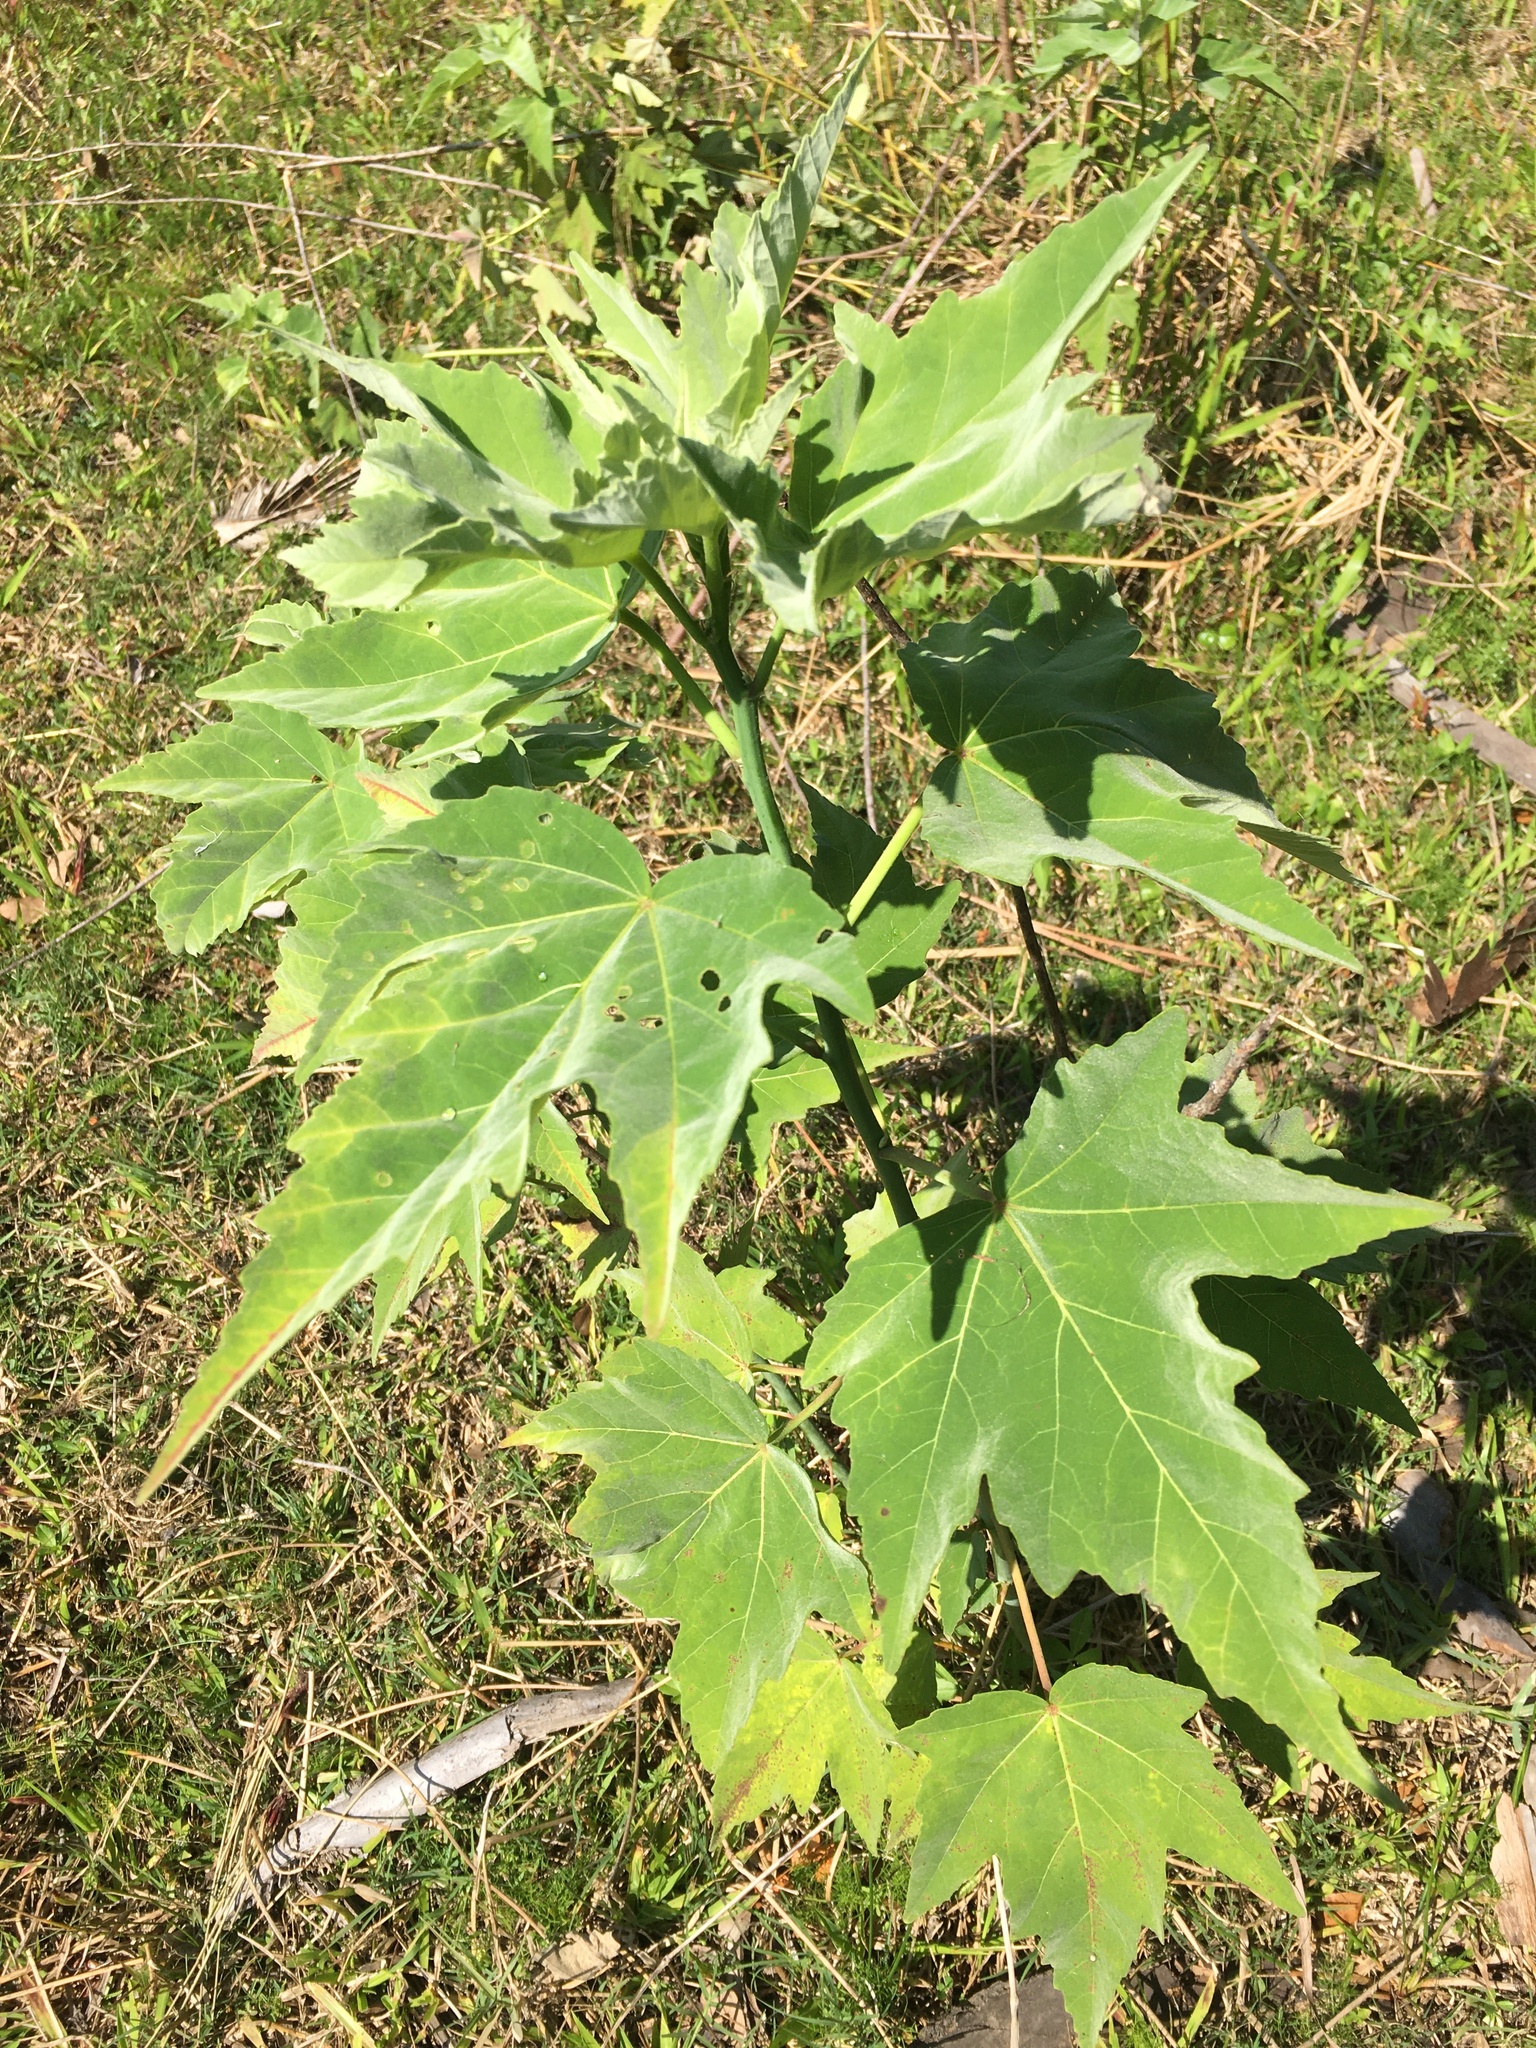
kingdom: Plantae
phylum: Tracheophyta
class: Magnoliopsida
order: Malvales
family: Malvaceae
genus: Hibiscus
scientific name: Hibiscus grandiflorus
